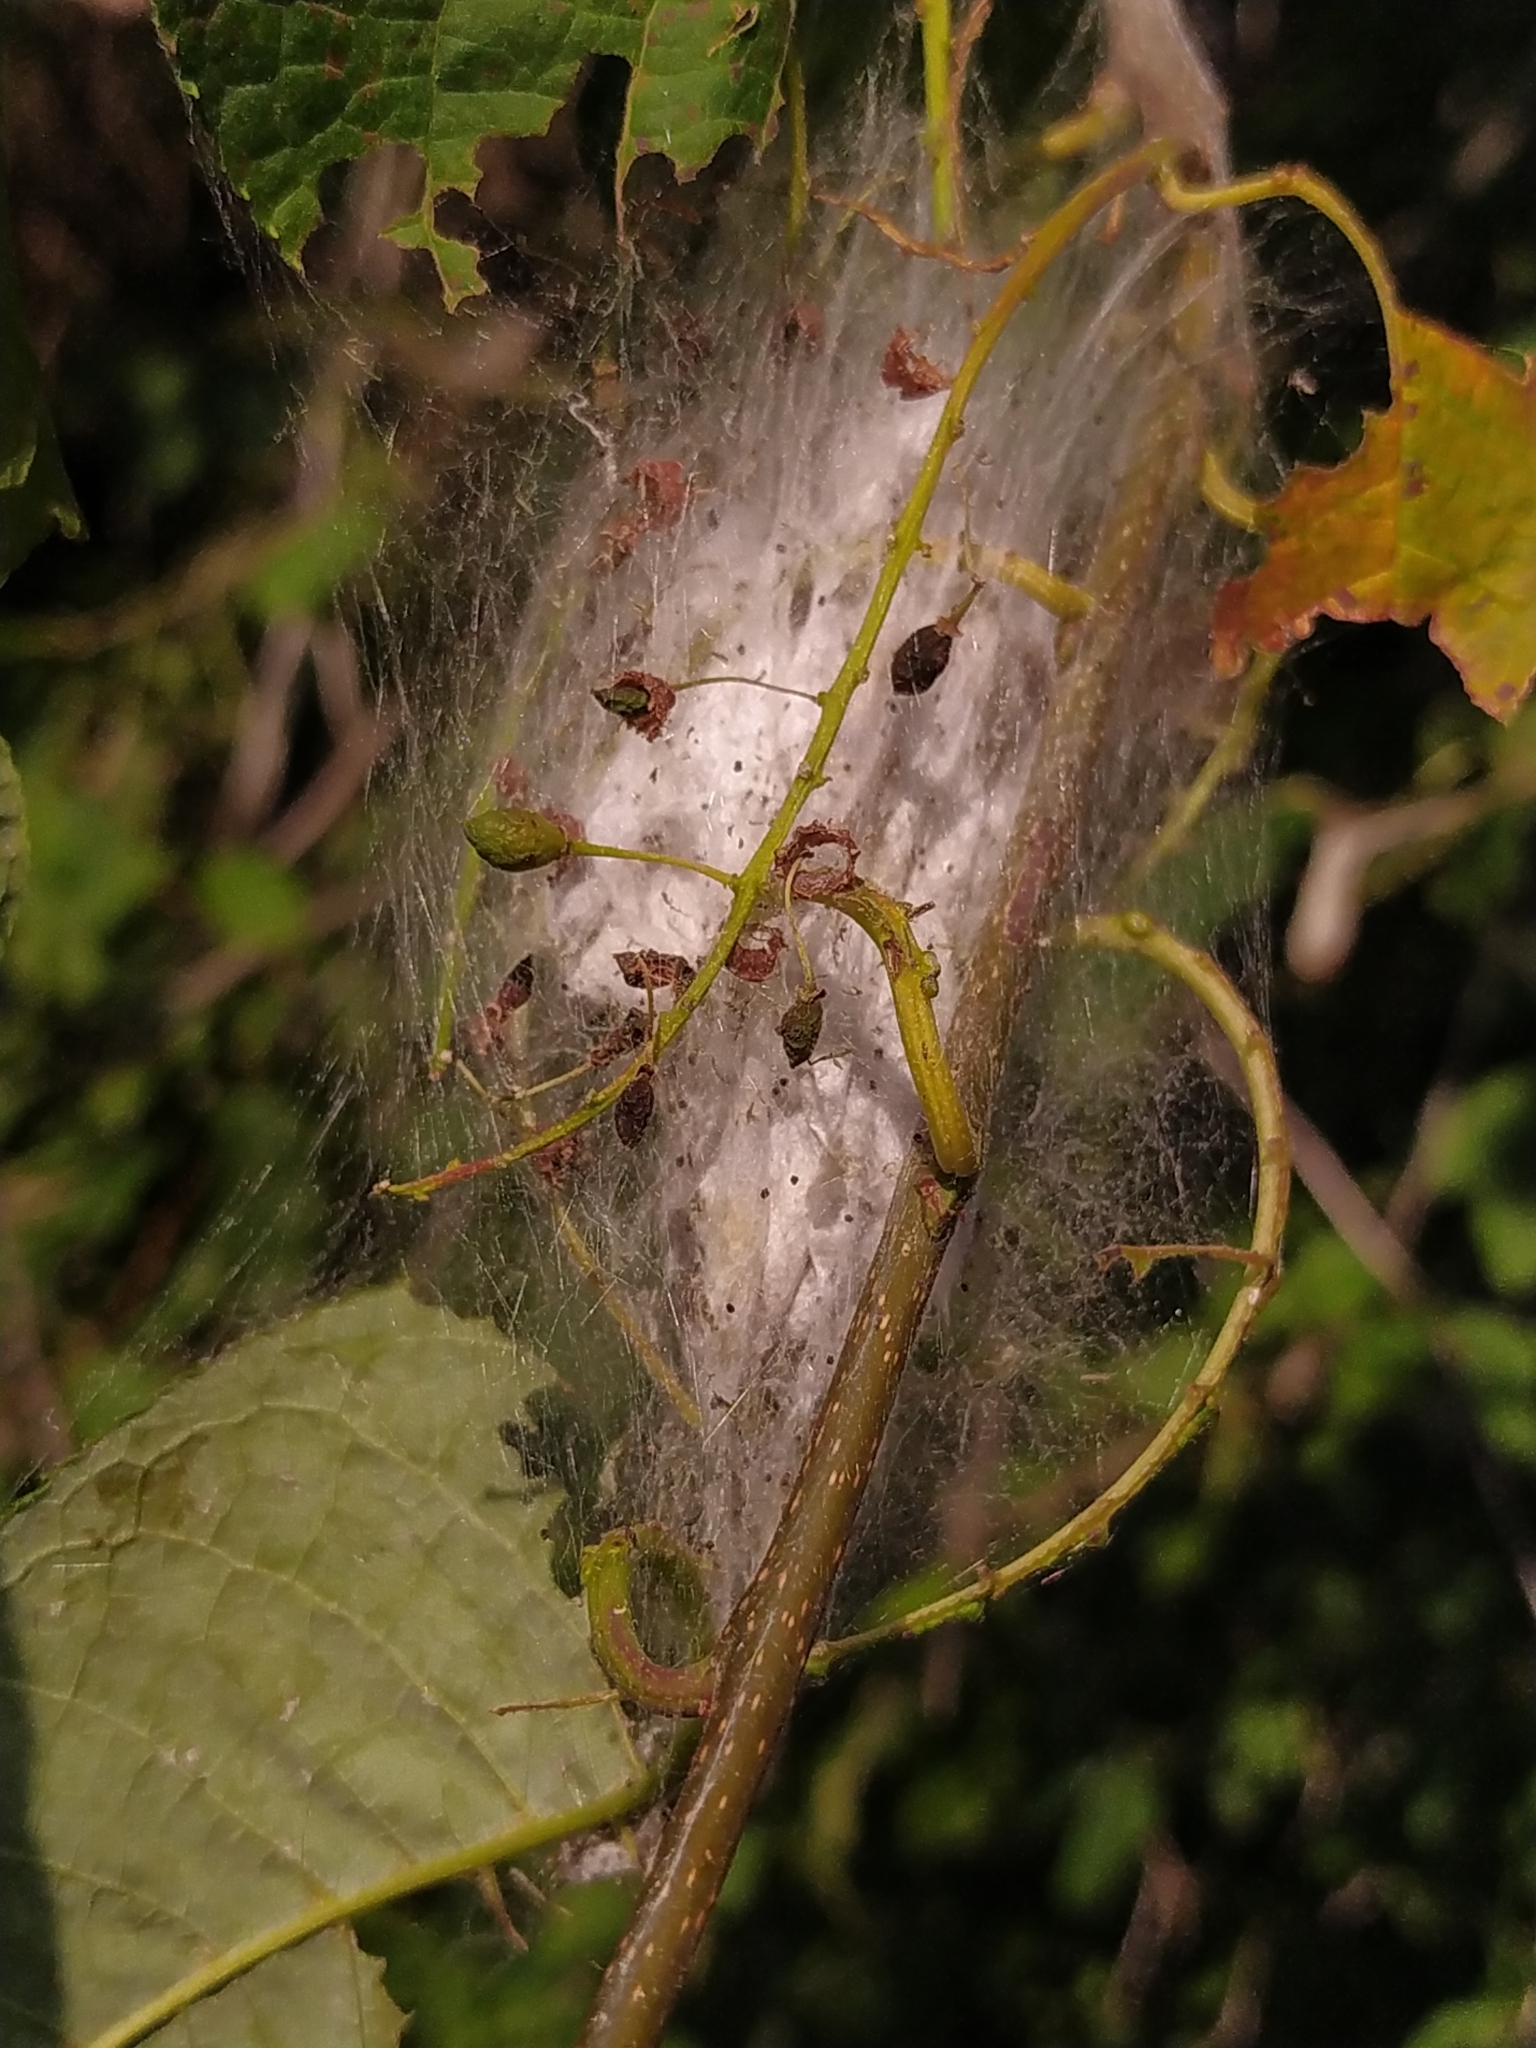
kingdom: Animalia
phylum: Arthropoda
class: Insecta
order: Lepidoptera
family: Yponomeutidae
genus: Yponomeuta
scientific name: Yponomeuta evonymella
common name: Bird-cherry ermine
